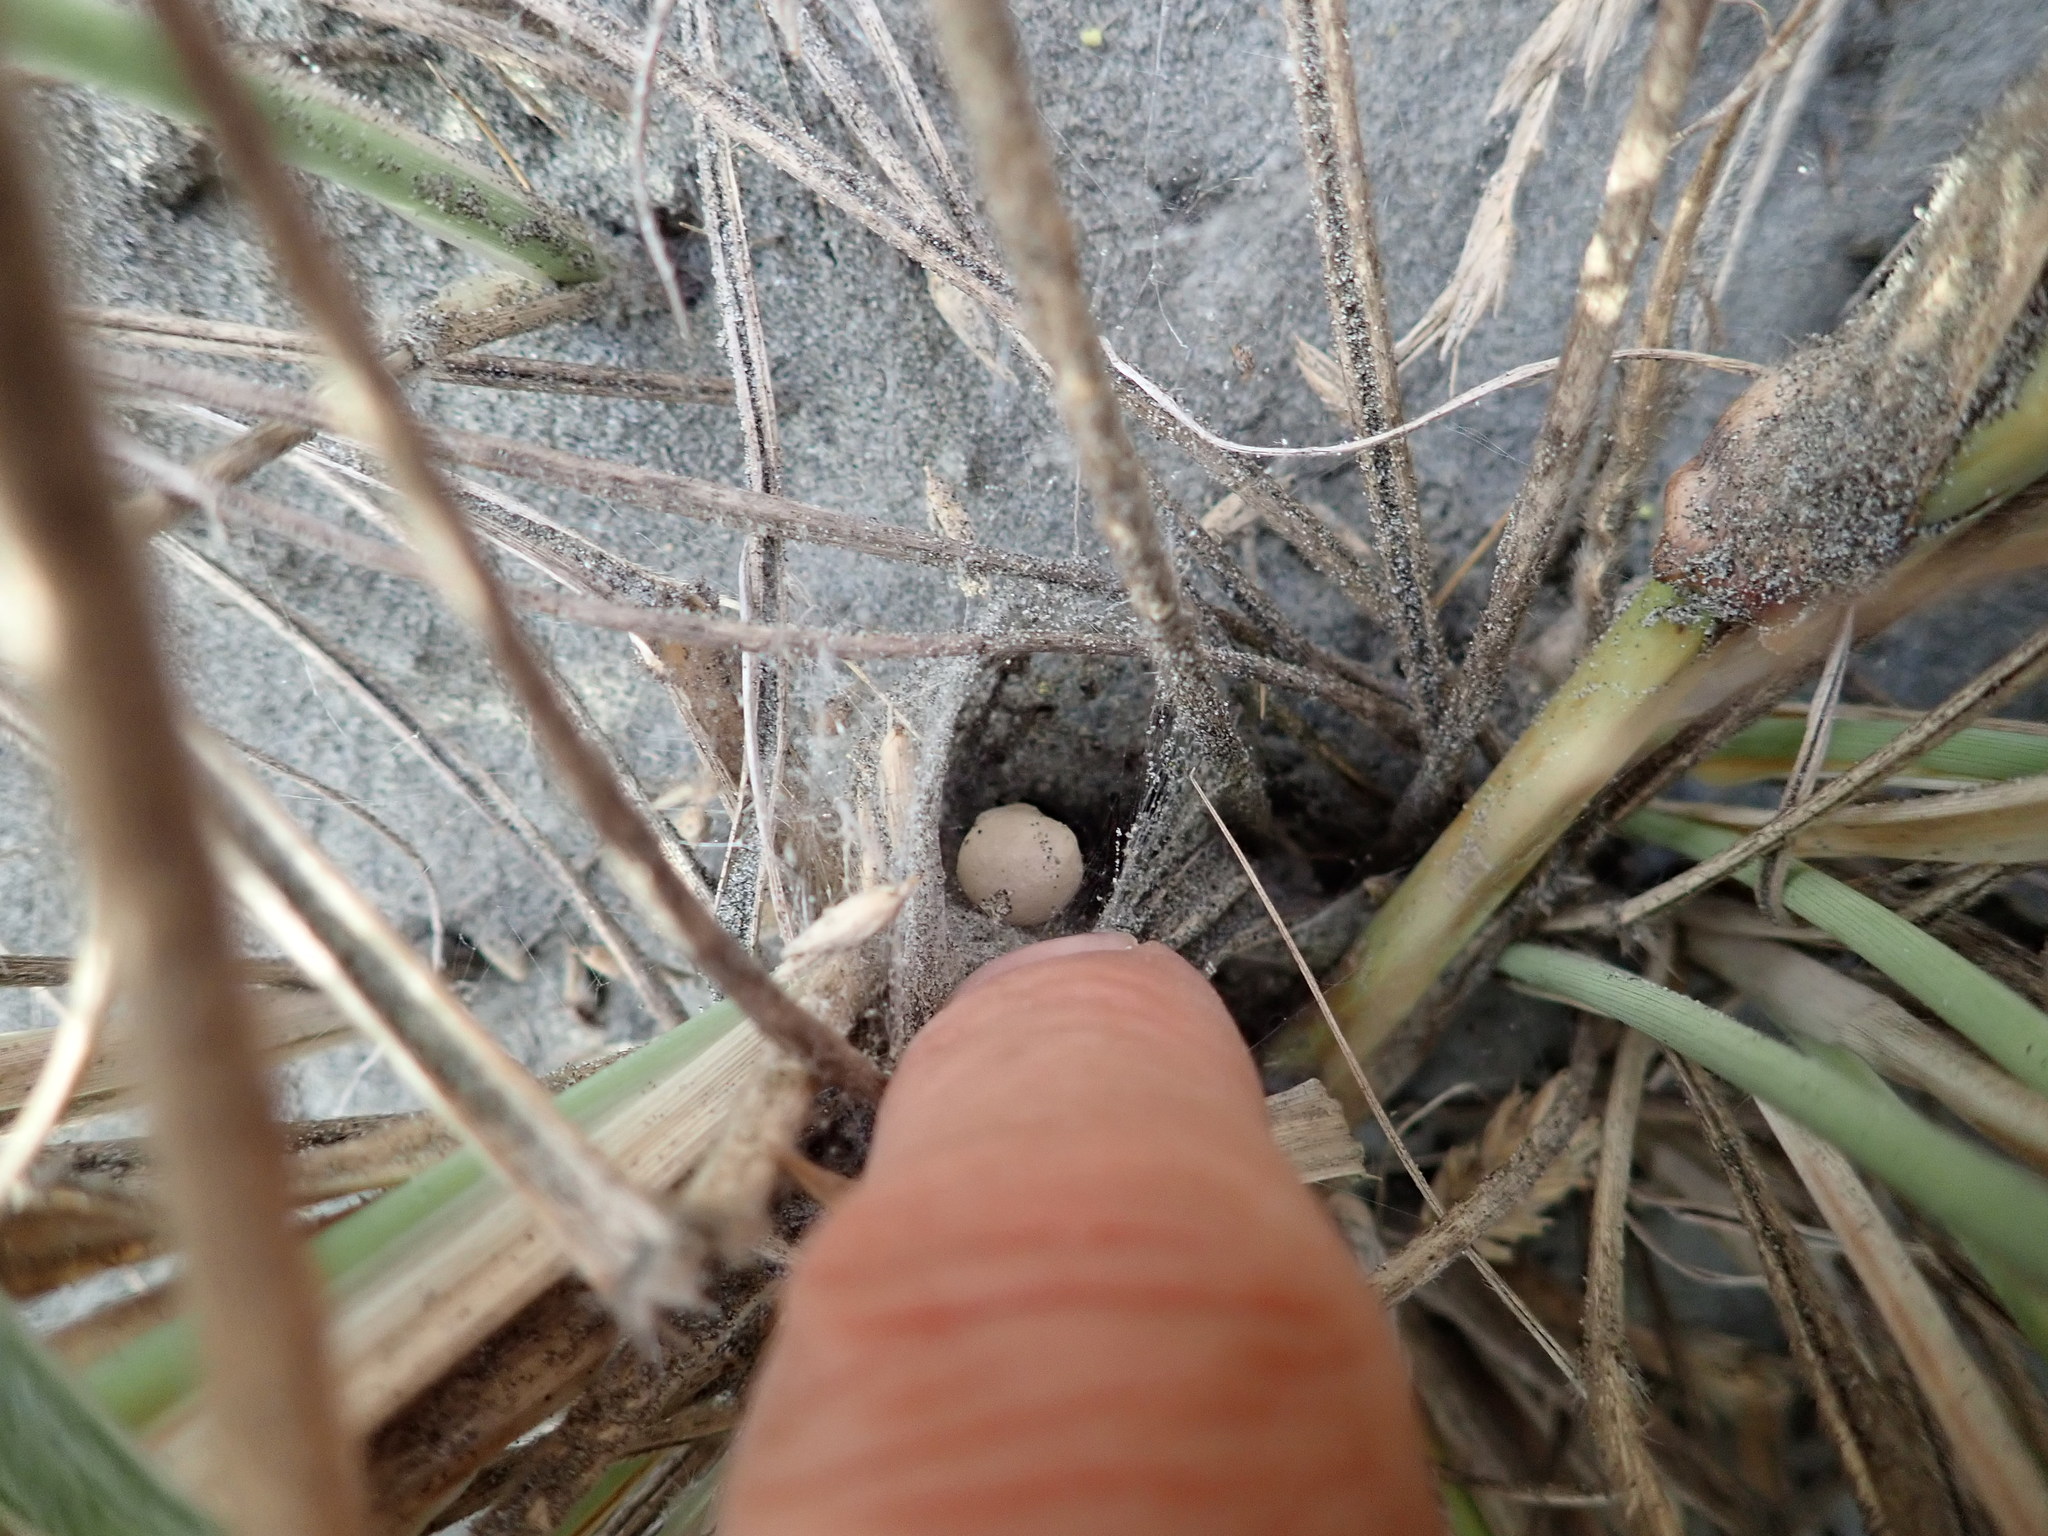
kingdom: Animalia
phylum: Arthropoda
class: Arachnida
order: Araneae
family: Theridiidae
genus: Latrodectus
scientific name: Latrodectus katipo
